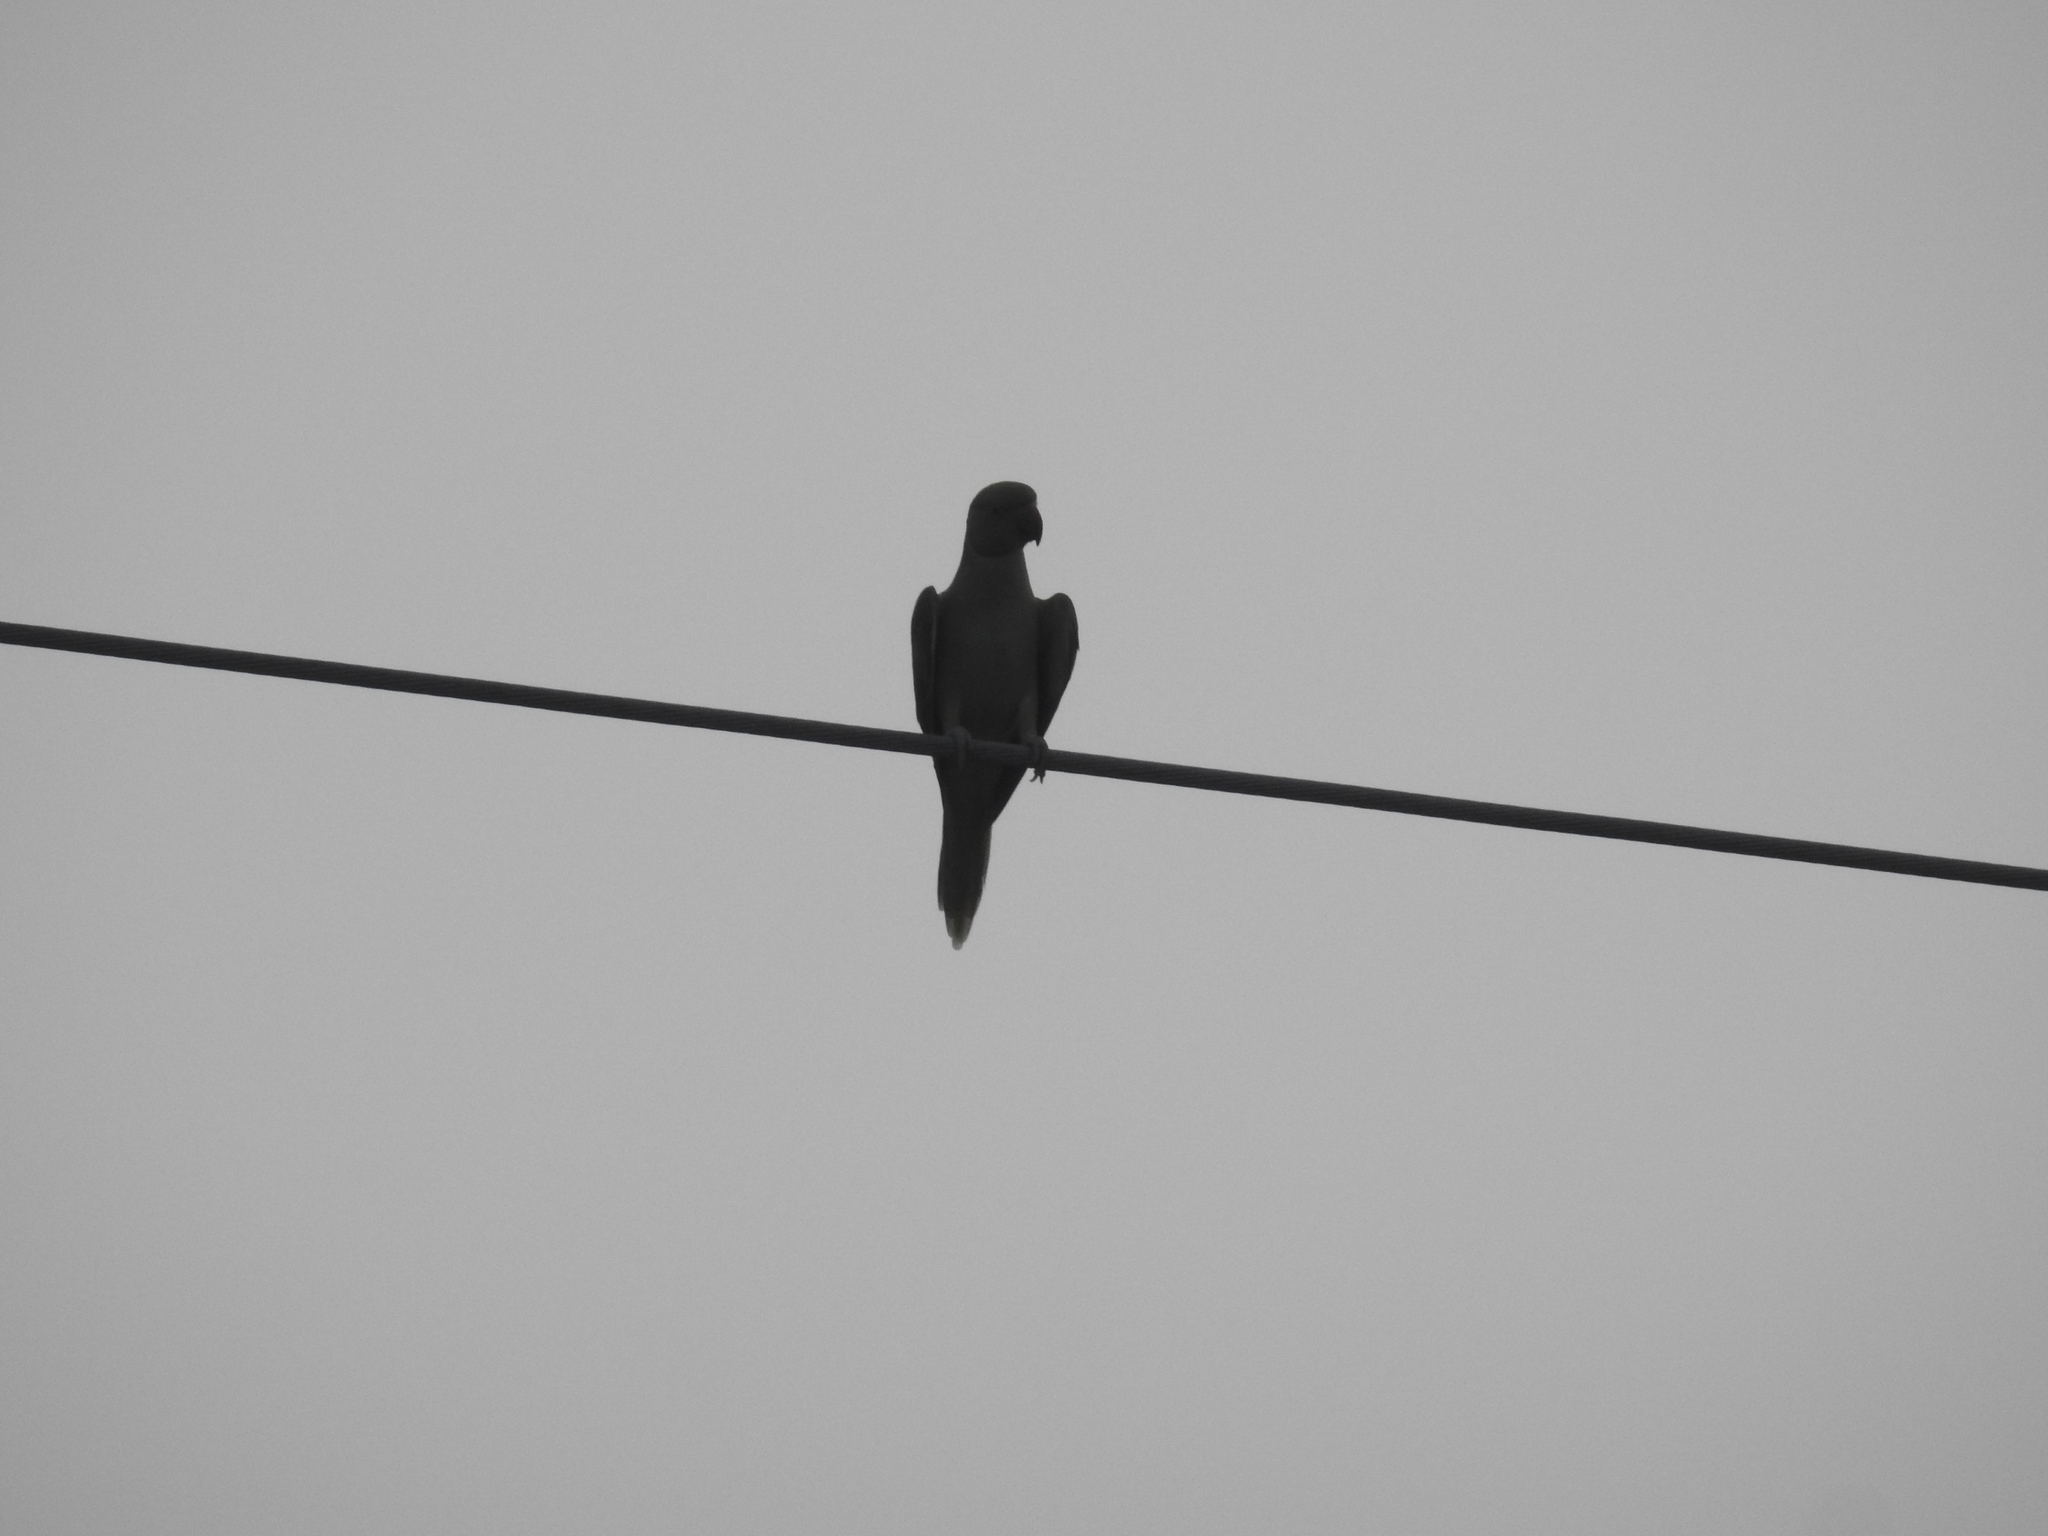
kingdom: Animalia
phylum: Chordata
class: Aves
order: Psittaciformes
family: Psittacidae
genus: Psittacula
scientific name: Psittacula krameri
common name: Rose-ringed parakeet
